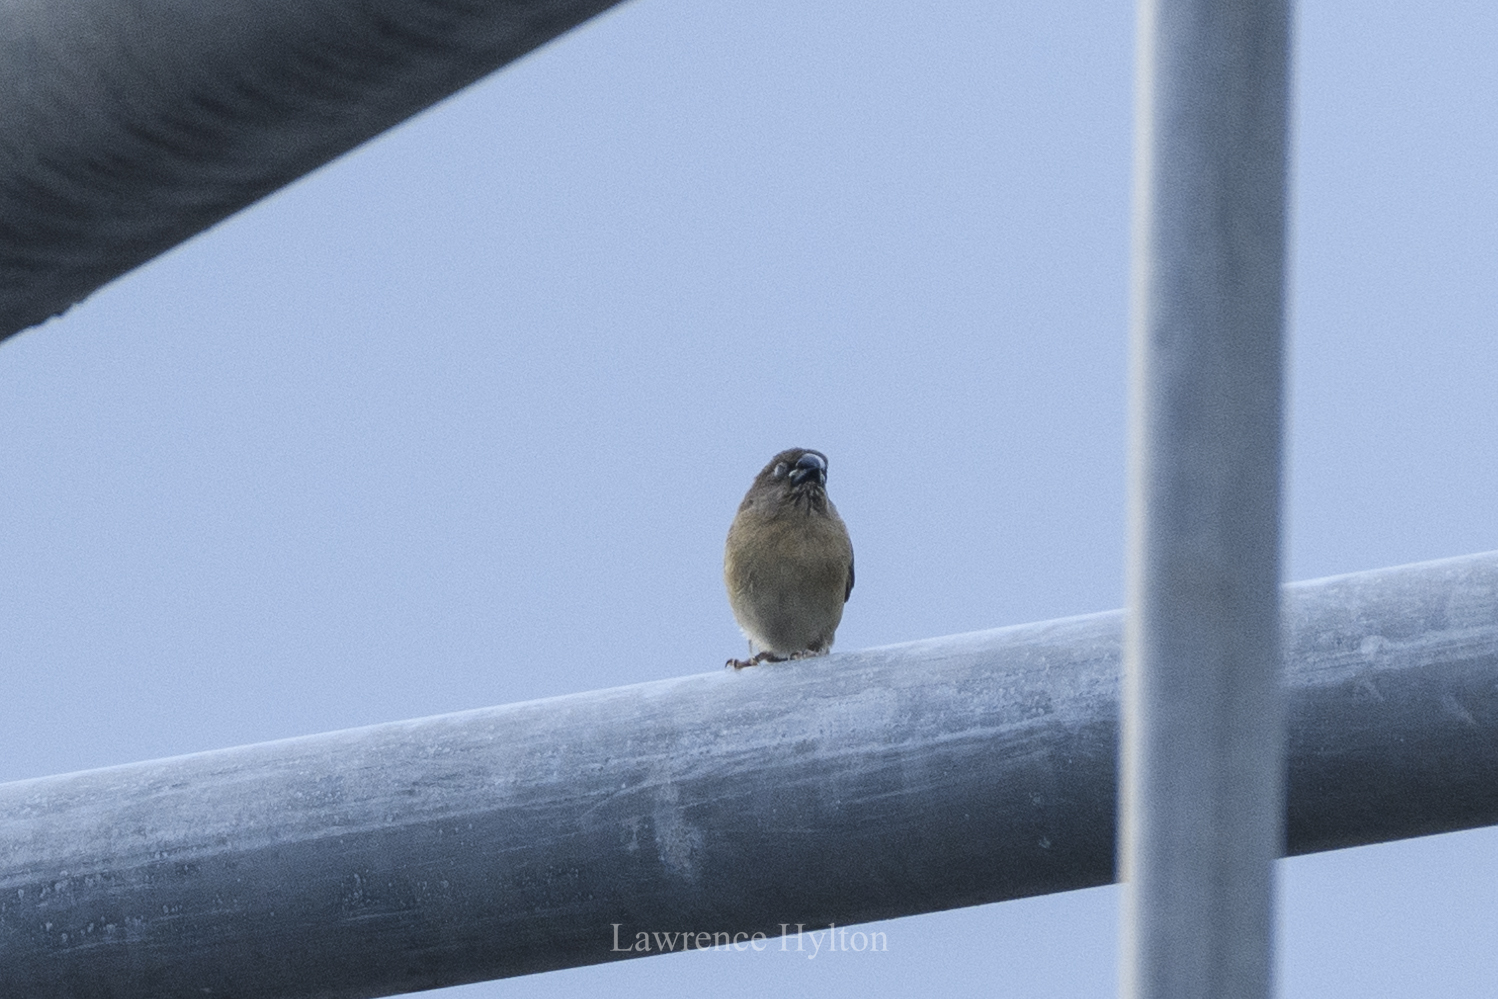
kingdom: Animalia
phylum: Chordata
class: Aves
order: Passeriformes
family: Estrildidae
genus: Lonchura
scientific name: Lonchura punctulata
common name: Scaly-breasted munia
